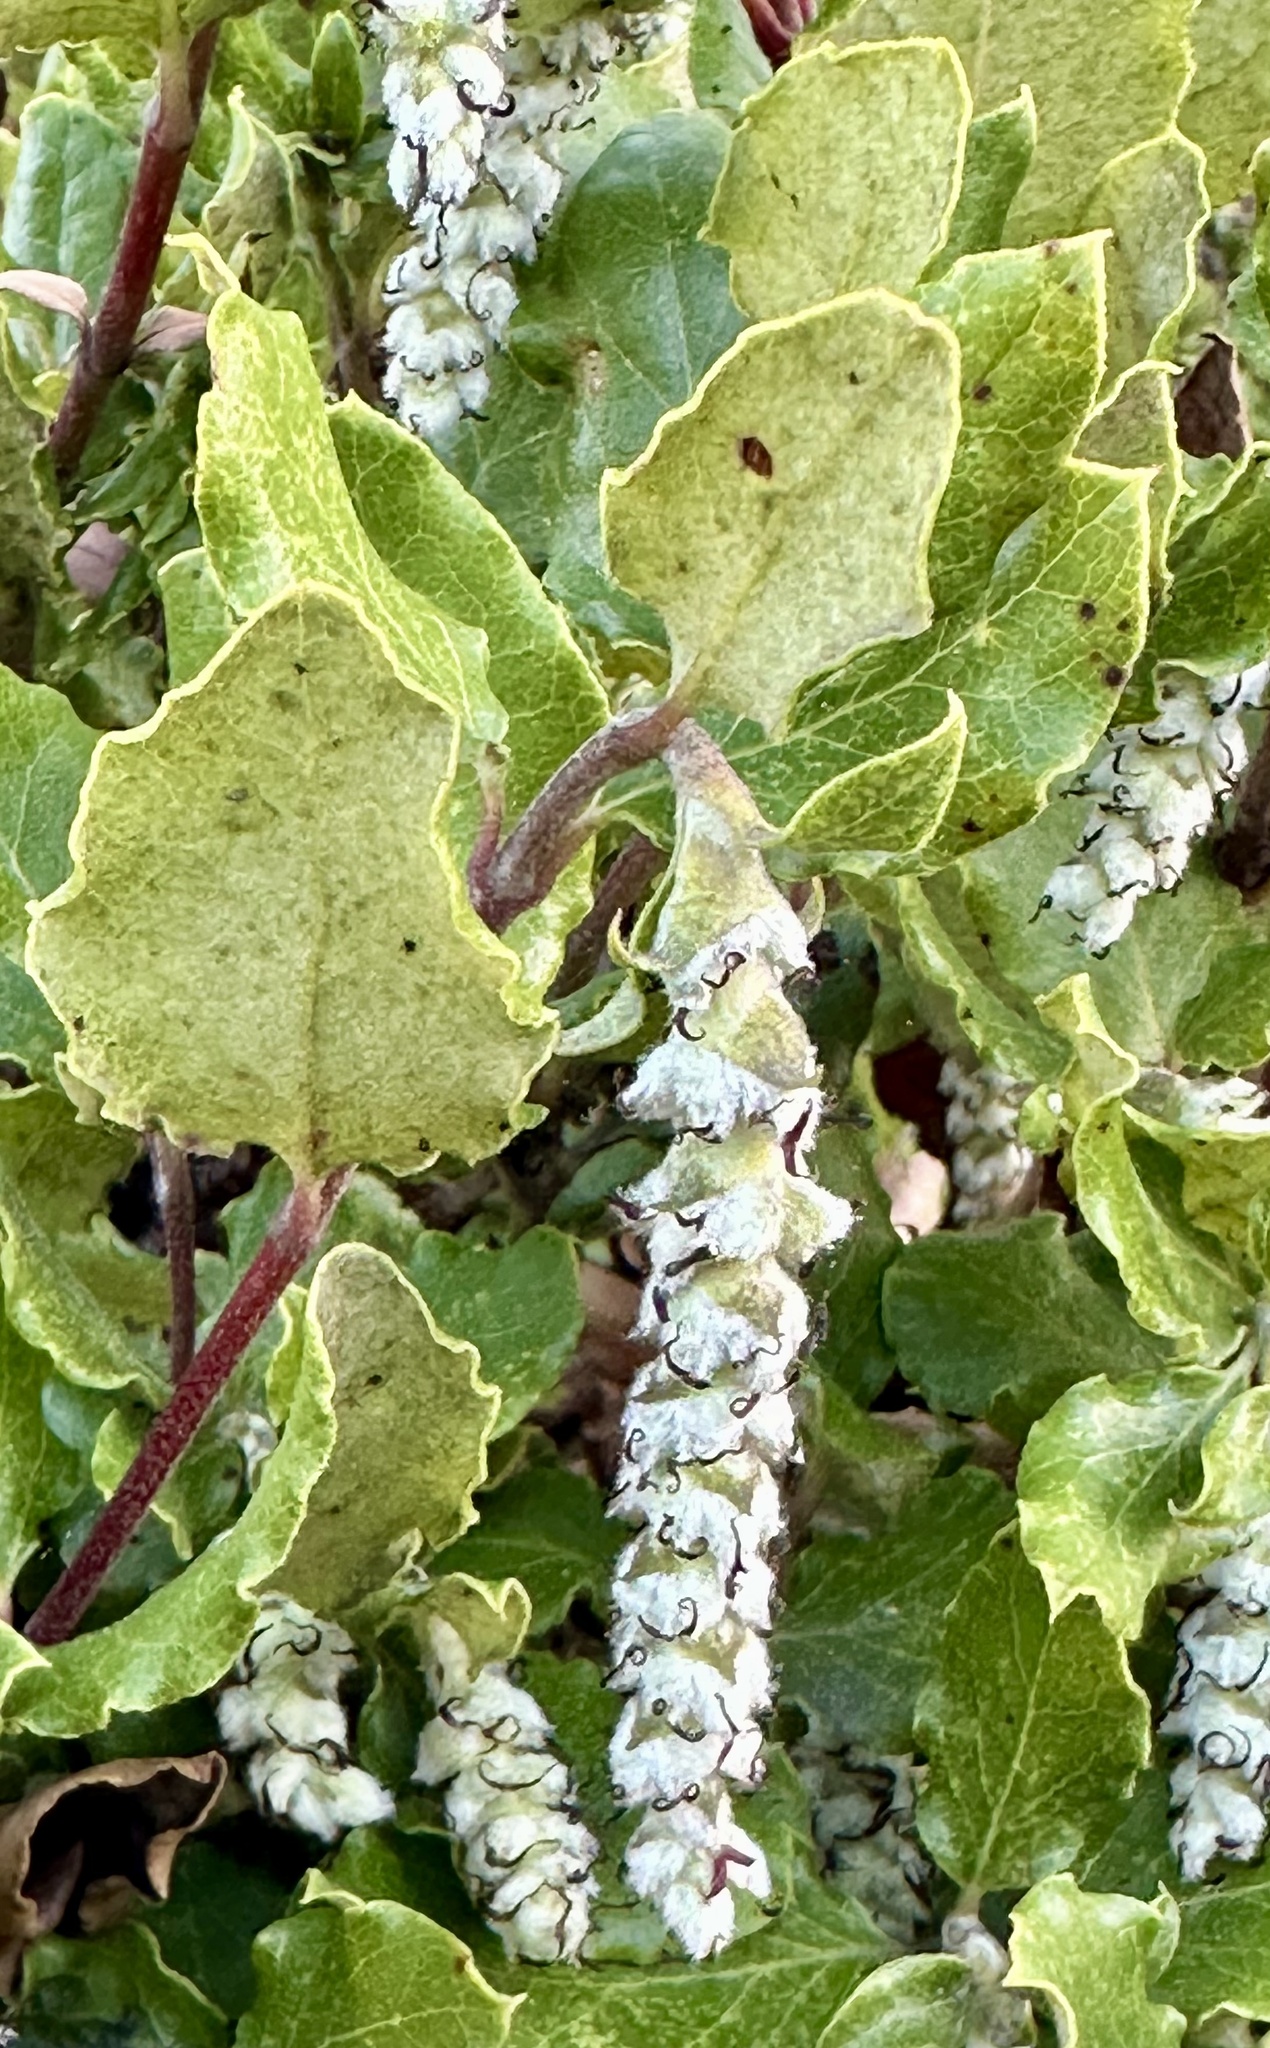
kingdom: Plantae
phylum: Tracheophyta
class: Magnoliopsida
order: Garryales
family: Garryaceae
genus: Garrya
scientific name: Garrya elliptica
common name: Silk-tassel
